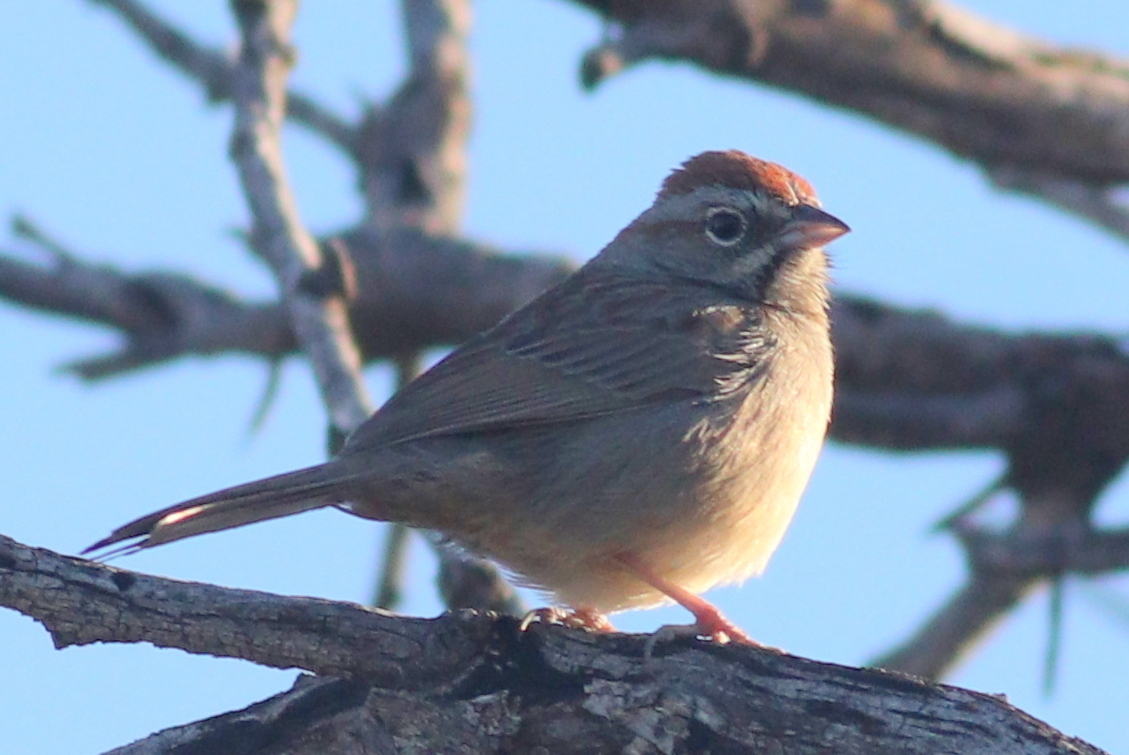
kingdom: Animalia
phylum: Chordata
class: Aves
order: Passeriformes
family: Passerellidae
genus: Aimophila
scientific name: Aimophila ruficeps
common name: Rufous-crowned sparrow
